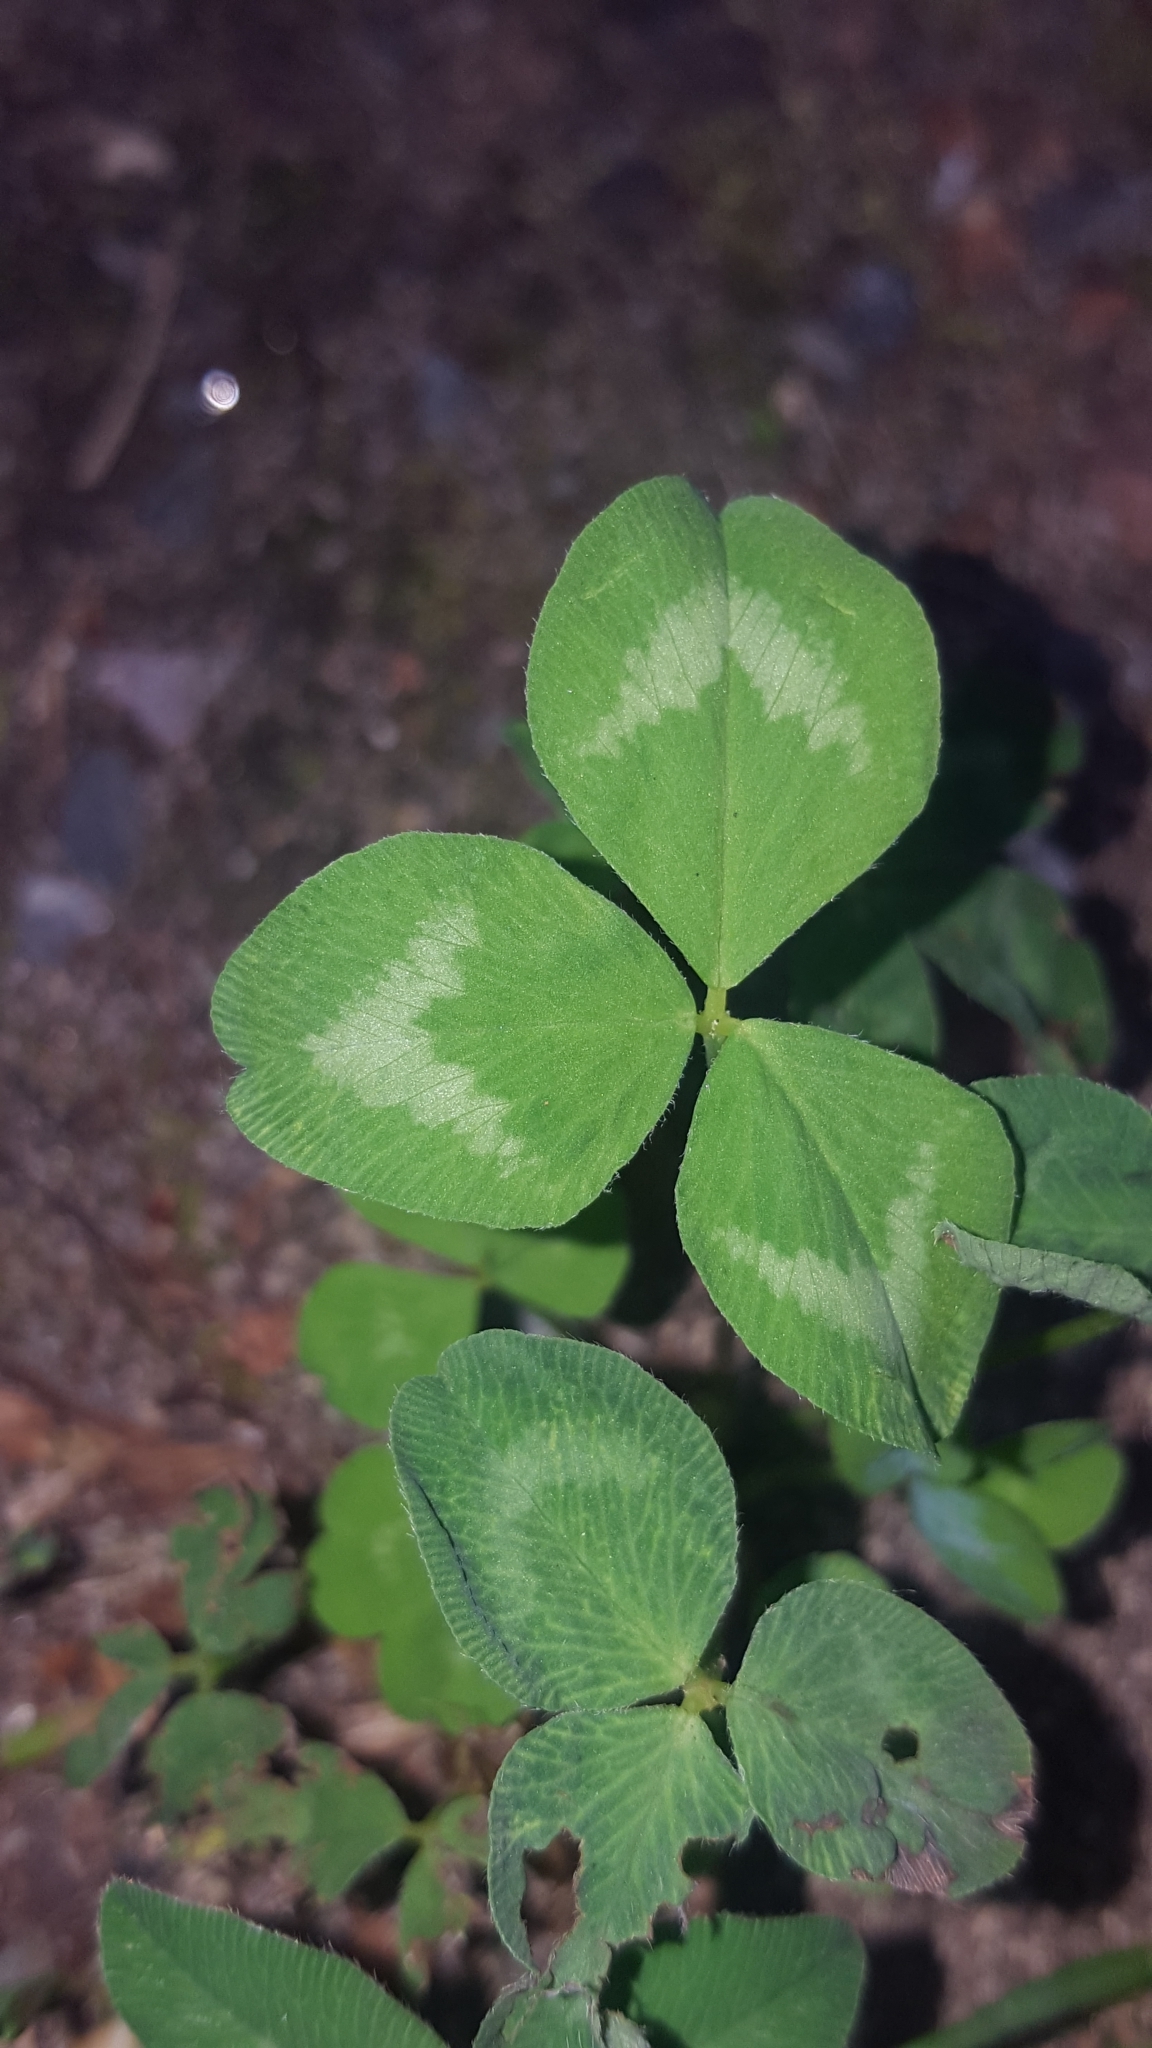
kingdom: Plantae
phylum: Tracheophyta
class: Magnoliopsida
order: Fabales
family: Fabaceae
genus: Trifolium
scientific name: Trifolium pratense
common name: Red clover
